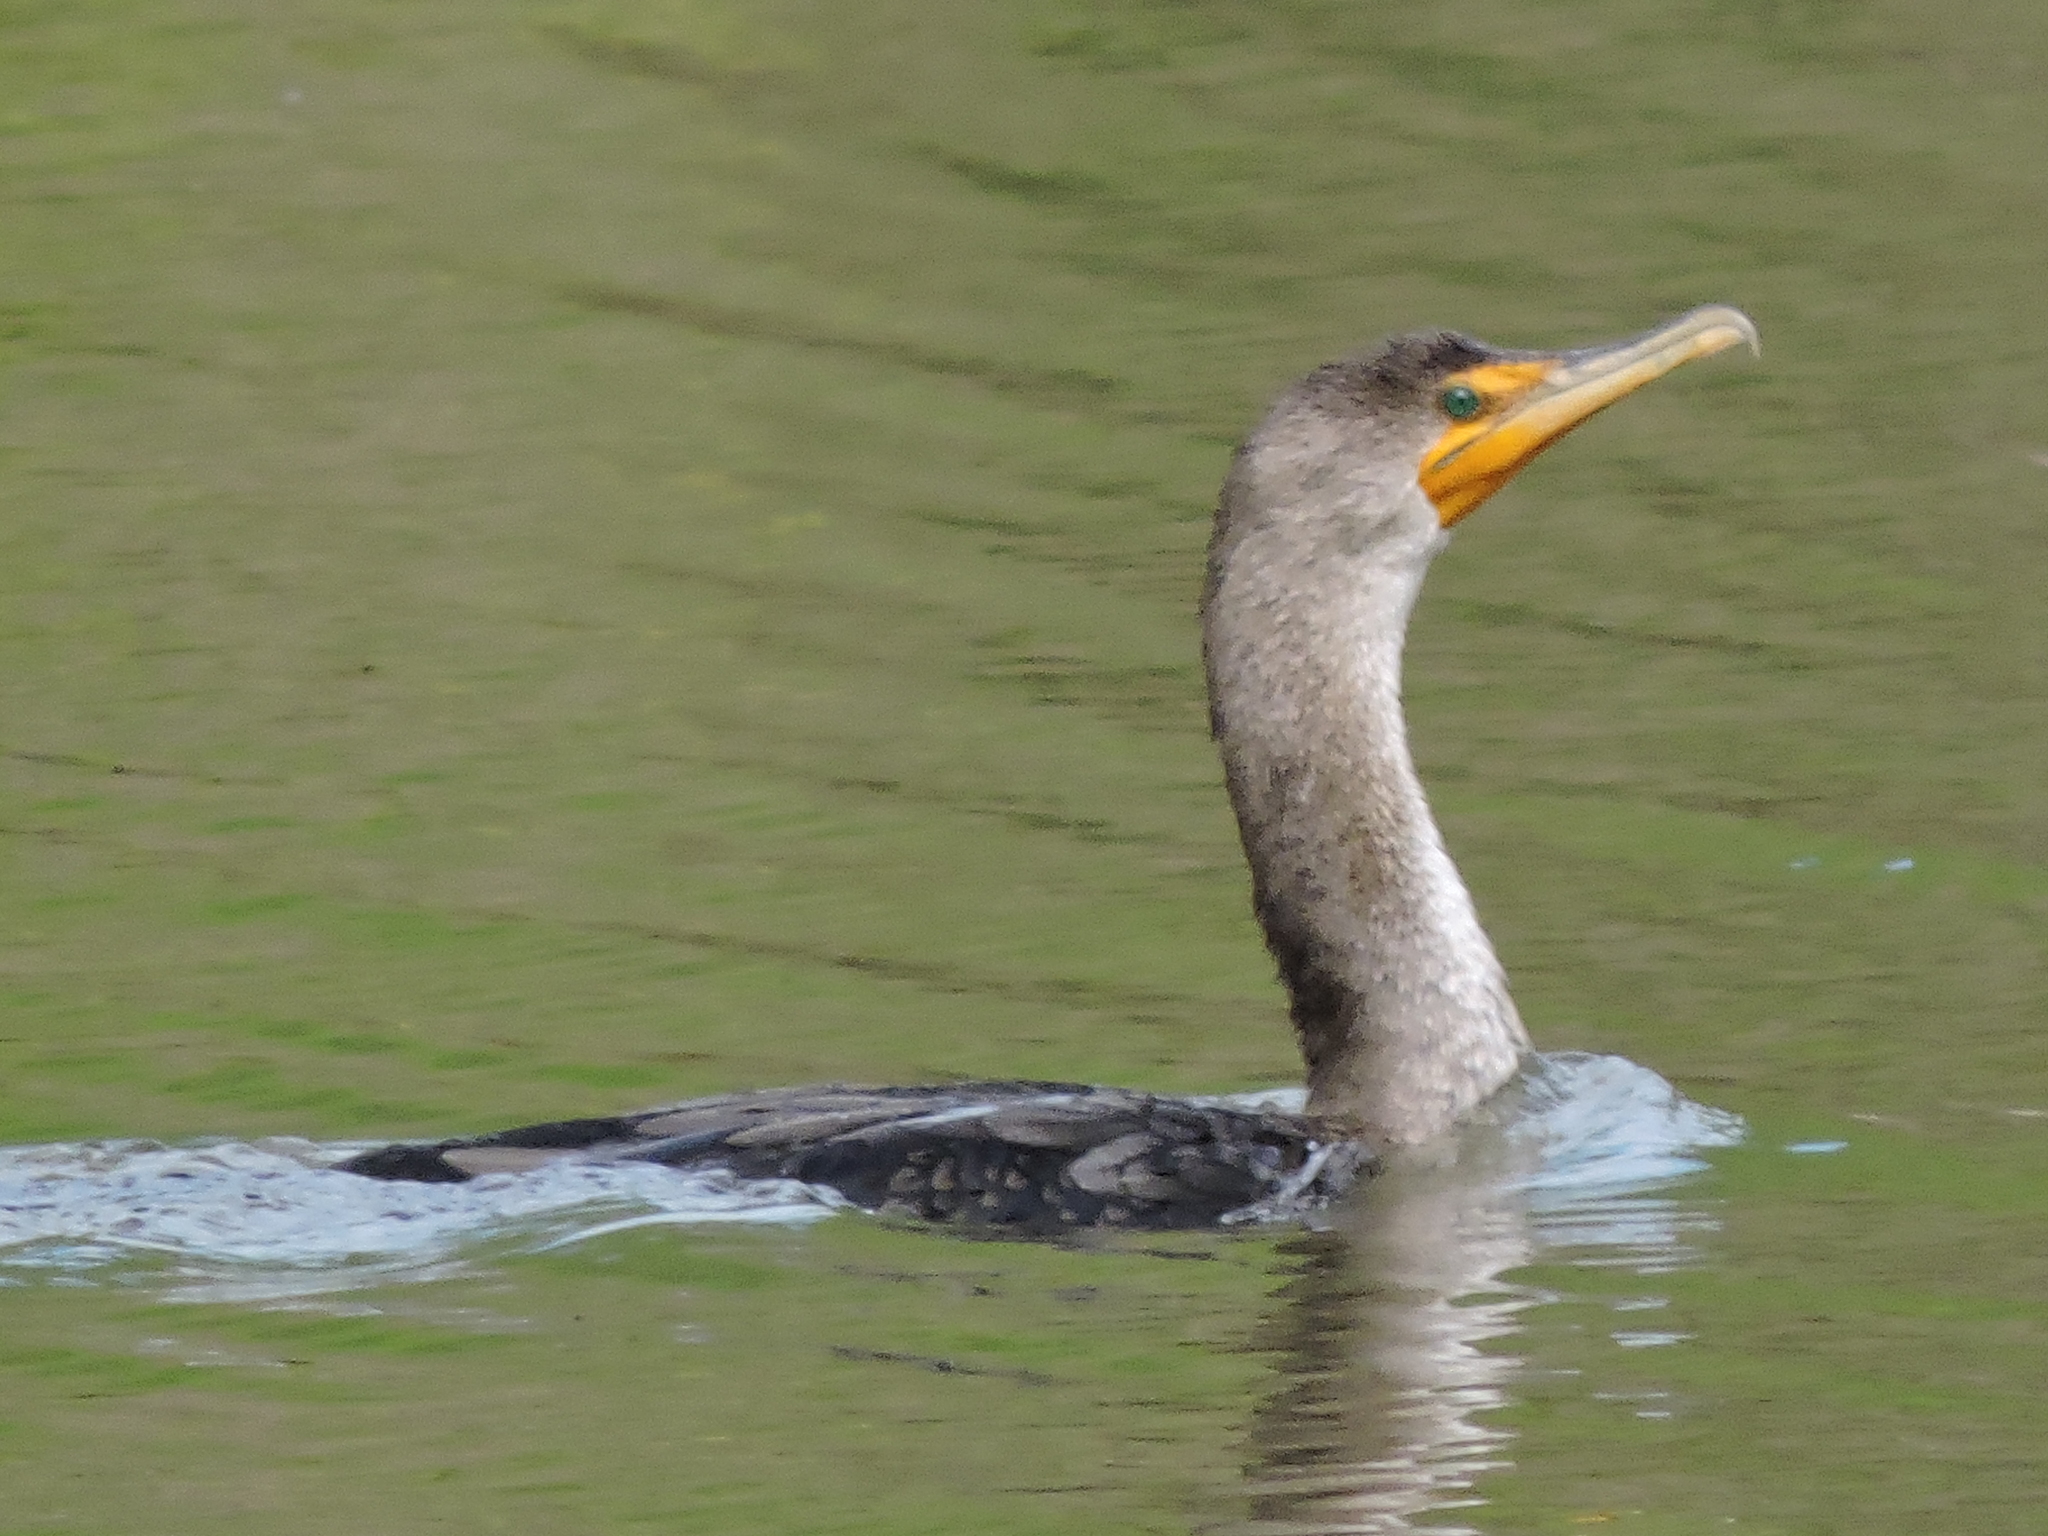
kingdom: Animalia
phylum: Chordata
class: Aves
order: Suliformes
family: Phalacrocoracidae
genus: Phalacrocorax
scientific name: Phalacrocorax auritus
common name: Double-crested cormorant
